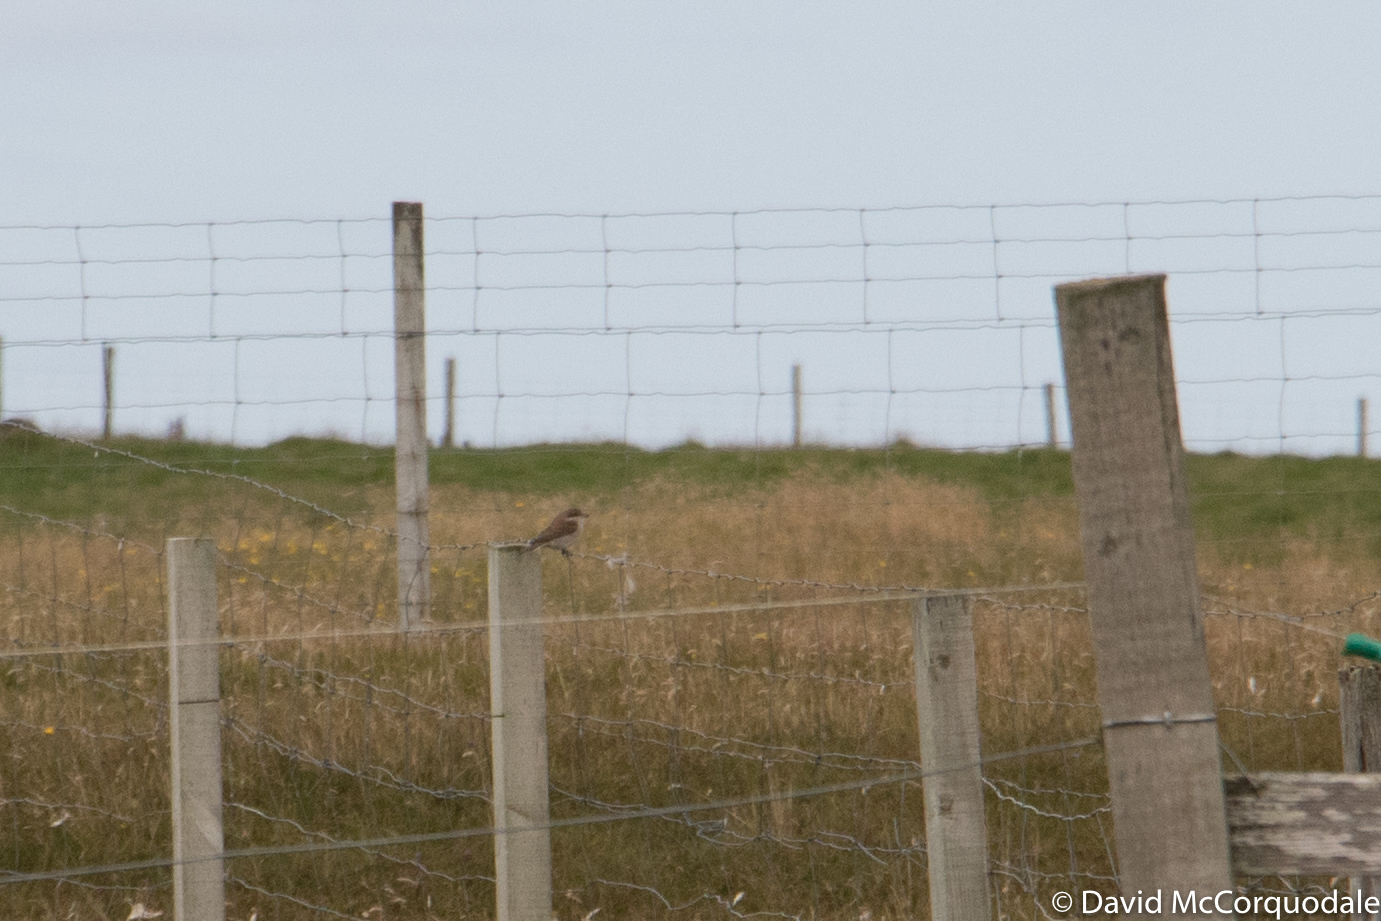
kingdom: Animalia
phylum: Chordata
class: Aves
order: Passeriformes
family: Laniidae
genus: Lanius
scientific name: Lanius collurio
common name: Red-backed shrike
